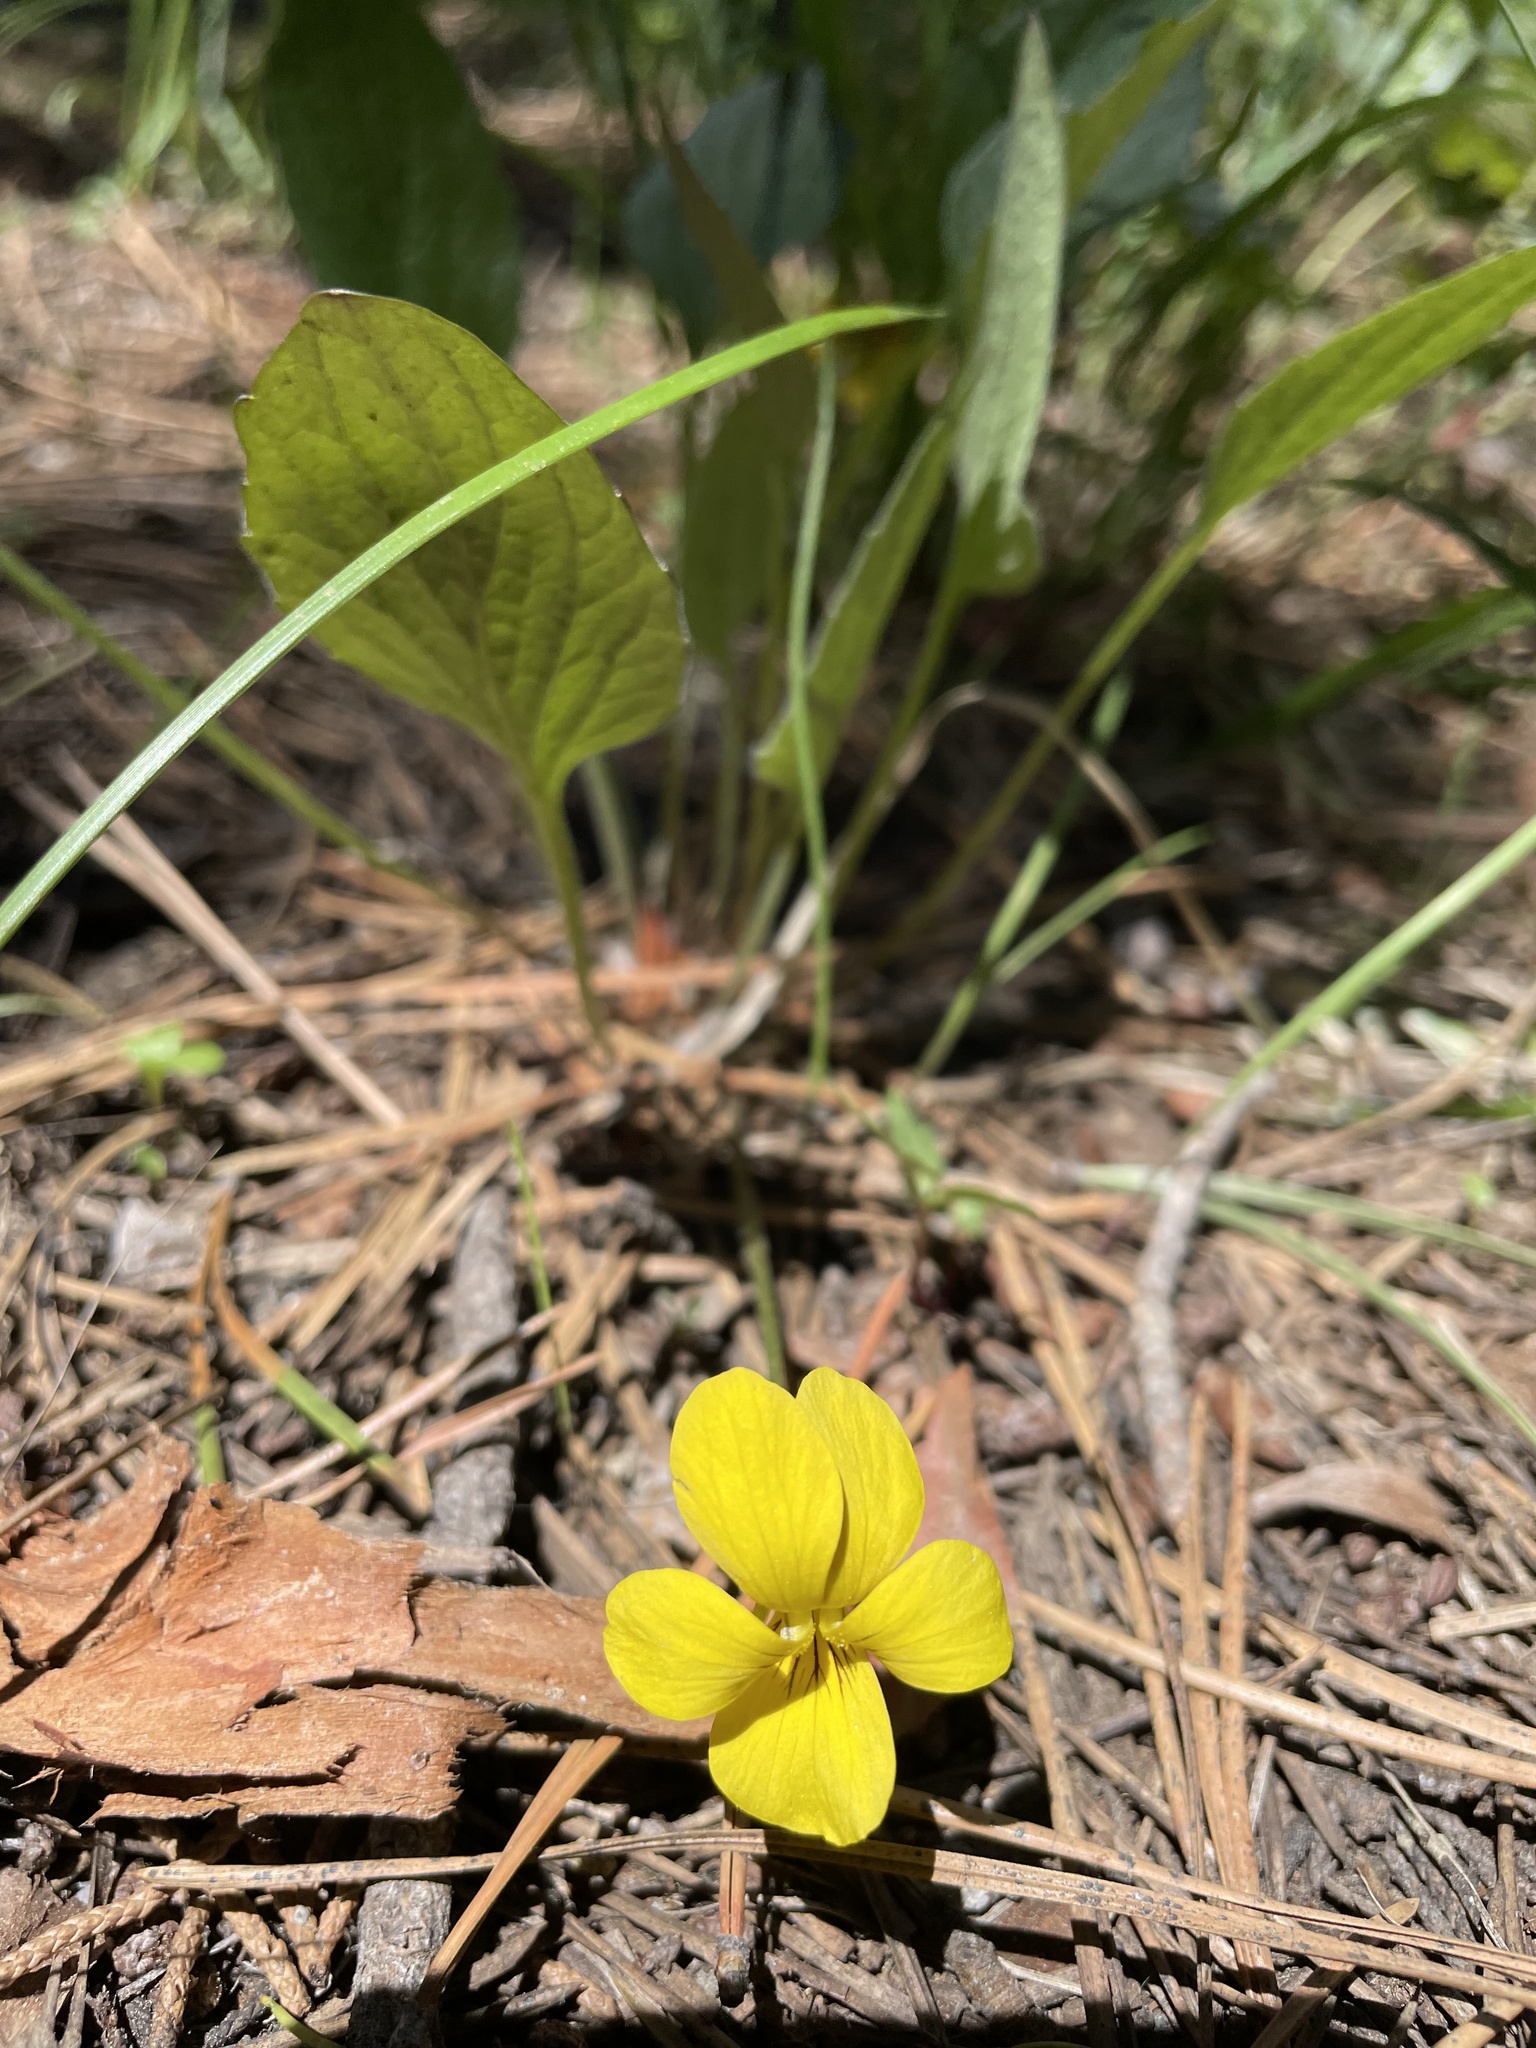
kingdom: Plantae
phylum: Tracheophyta
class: Magnoliopsida
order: Malpighiales
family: Violaceae
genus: Viola
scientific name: Viola praemorsa
